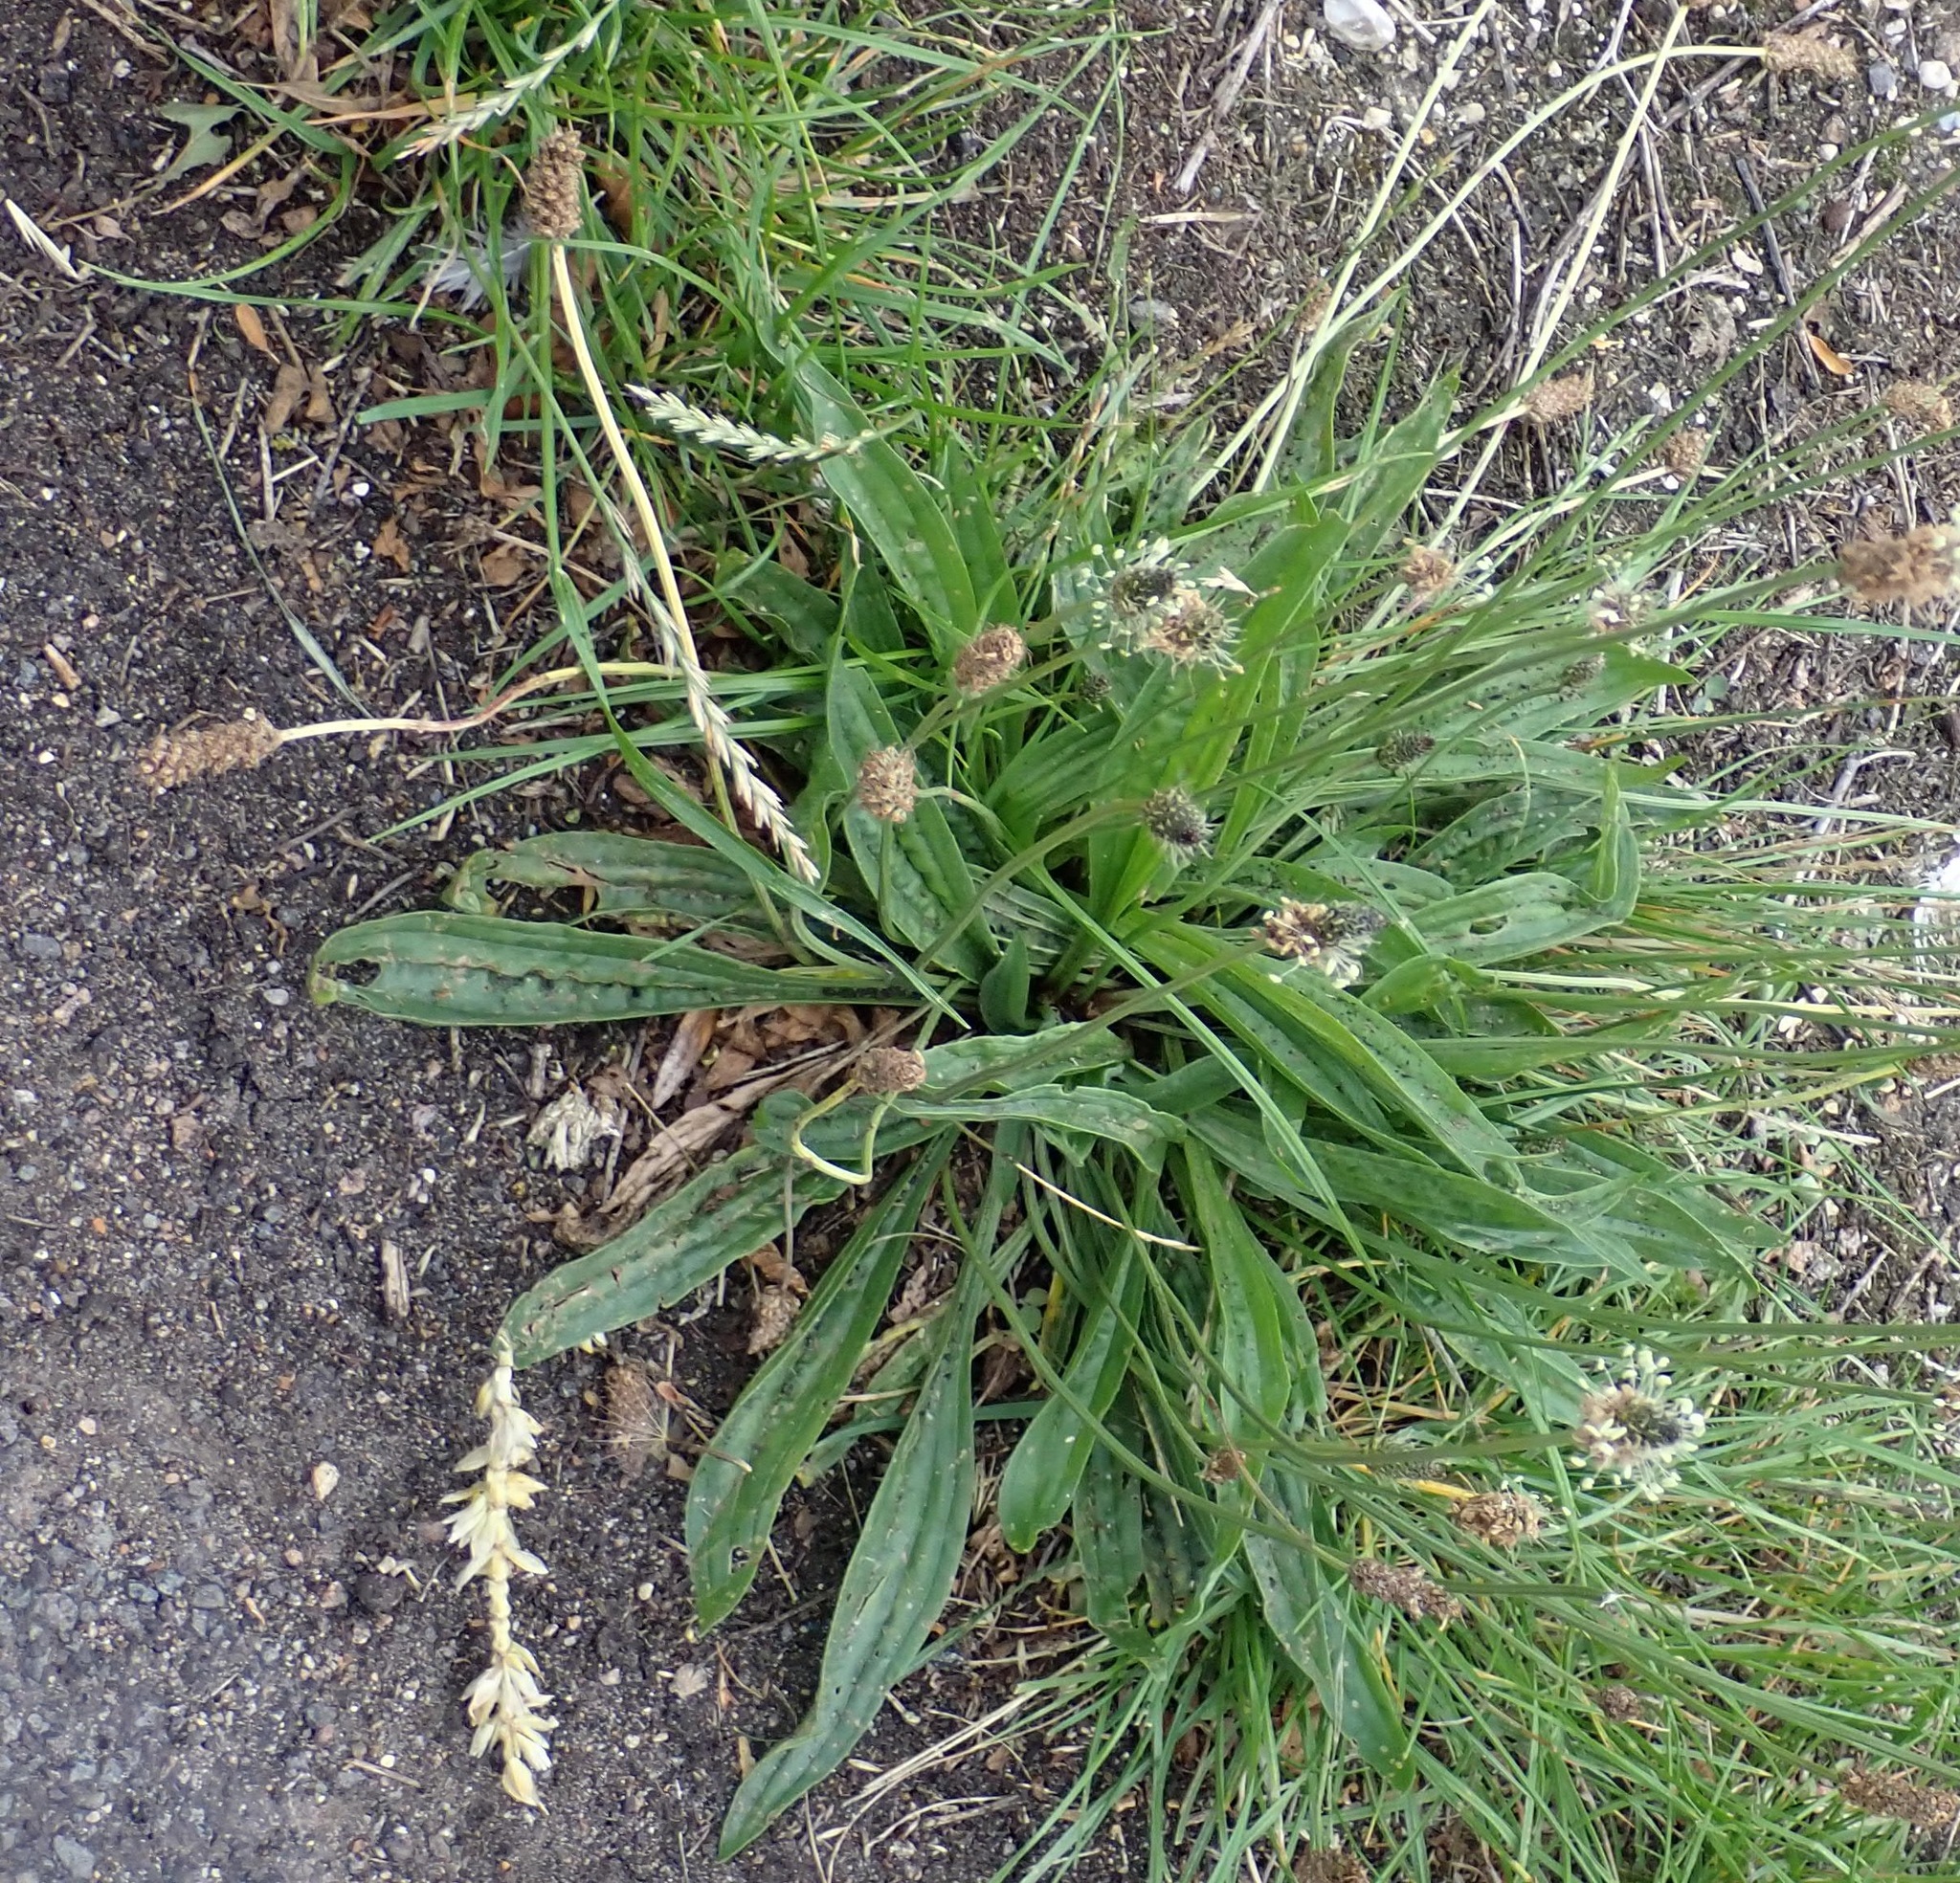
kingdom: Plantae
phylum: Tracheophyta
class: Magnoliopsida
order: Lamiales
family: Plantaginaceae
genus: Plantago
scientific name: Plantago lanceolata
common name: Ribwort plantain
